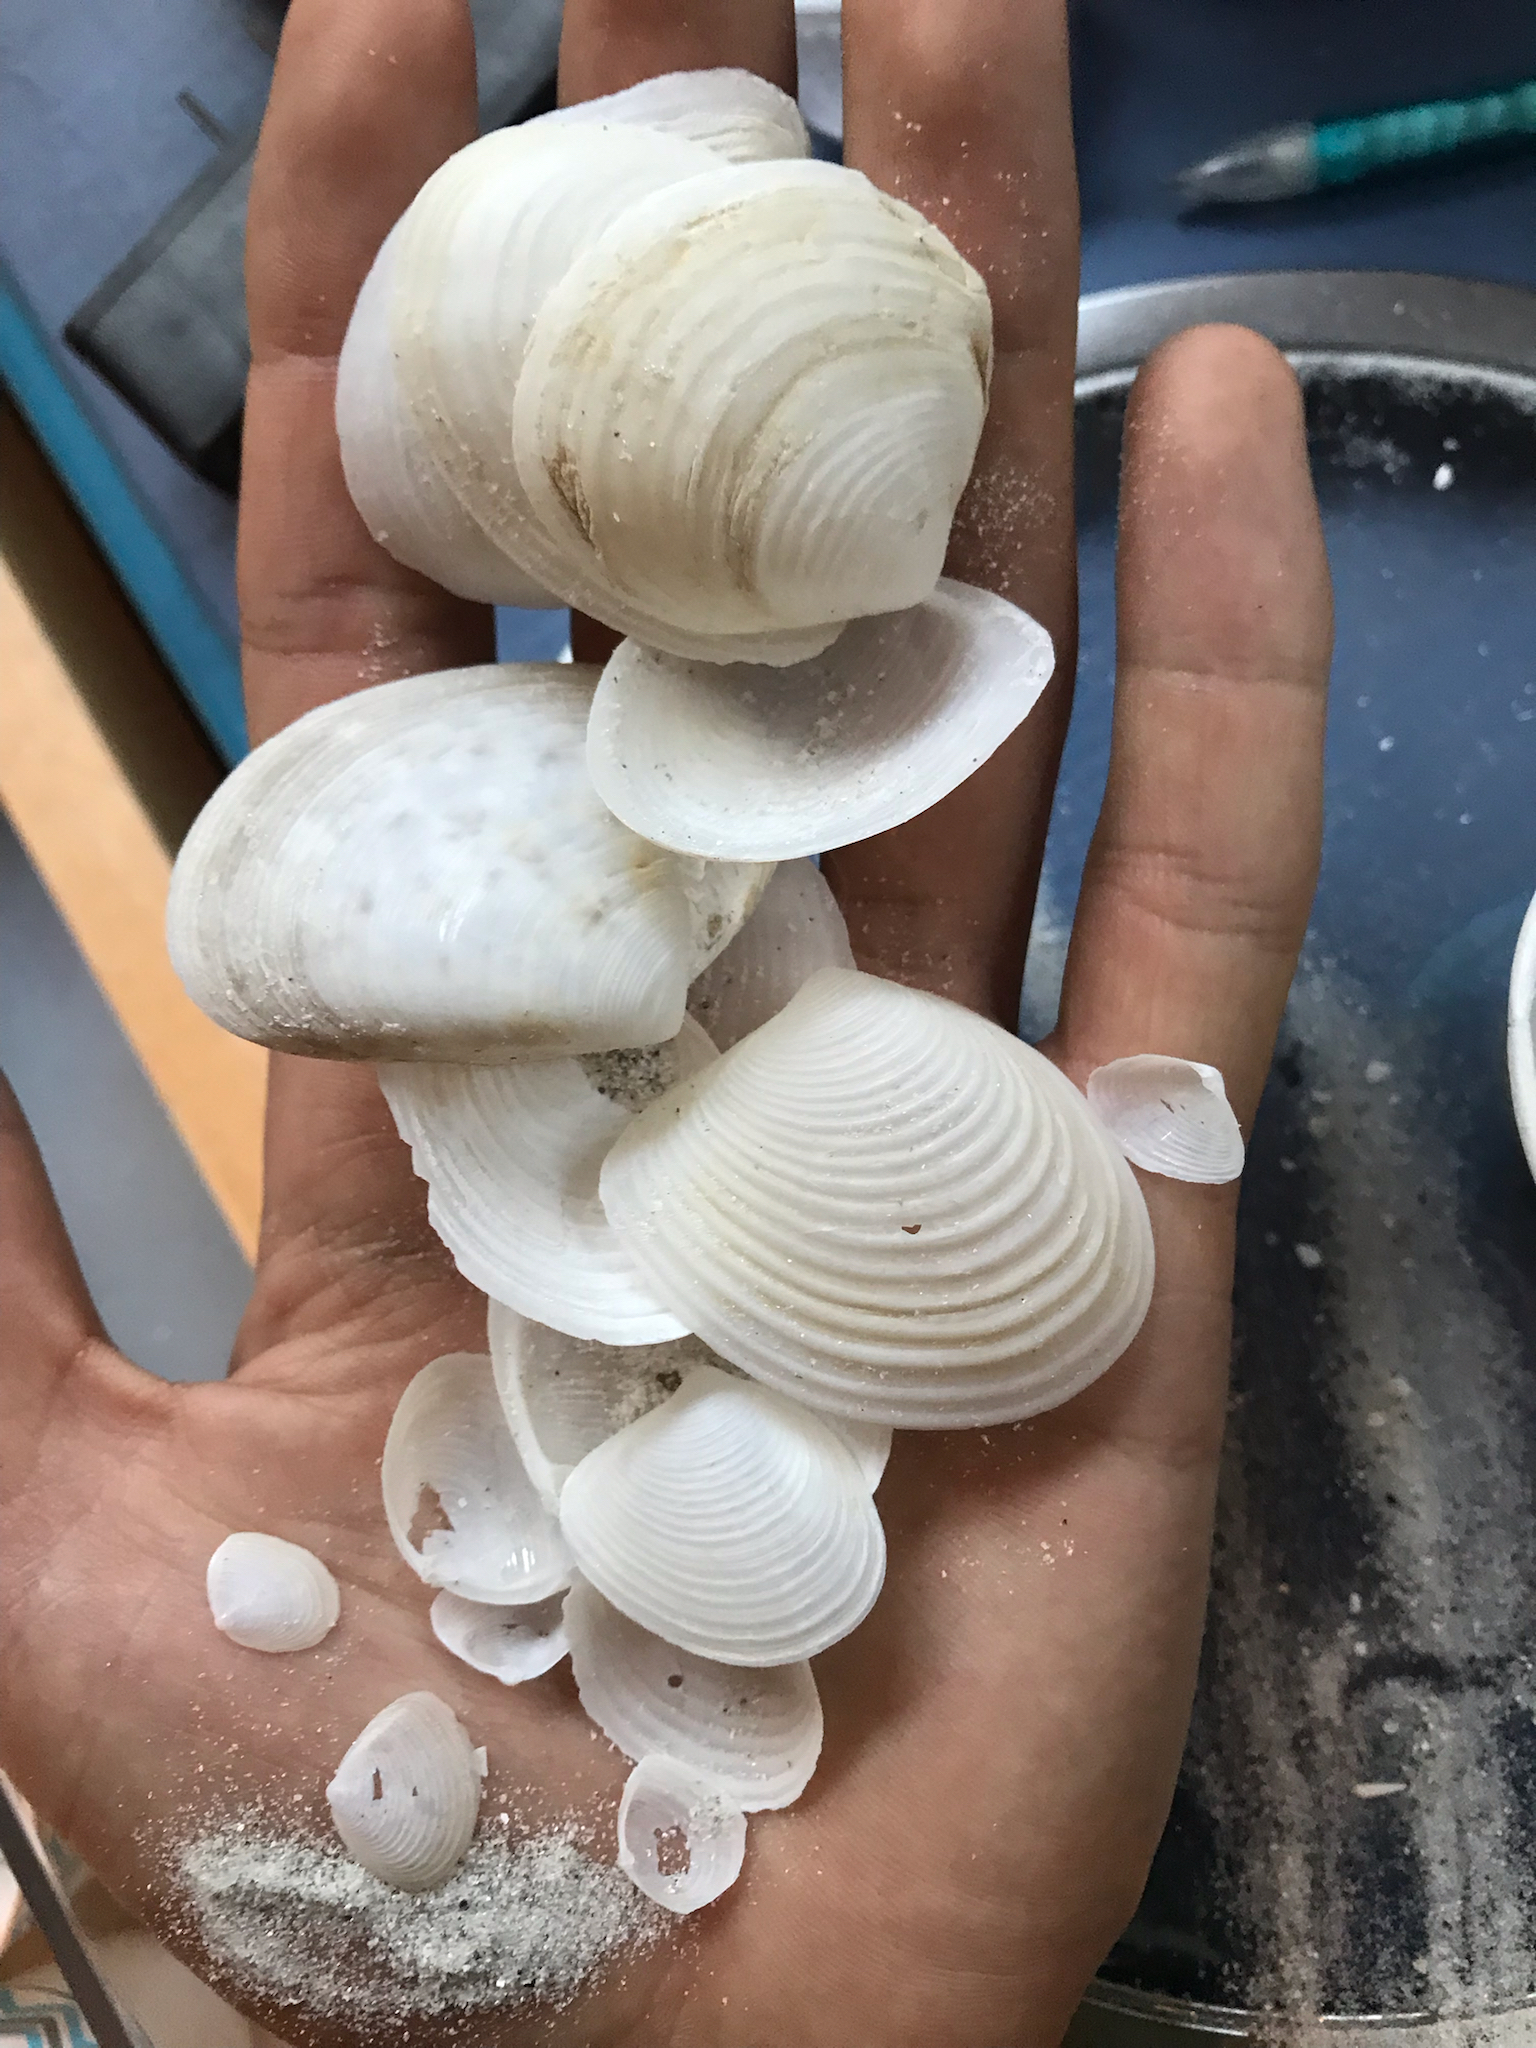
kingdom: Animalia
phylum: Mollusca
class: Bivalvia
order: Venerida
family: Anatinellidae
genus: Raeta
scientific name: Raeta plicatella
